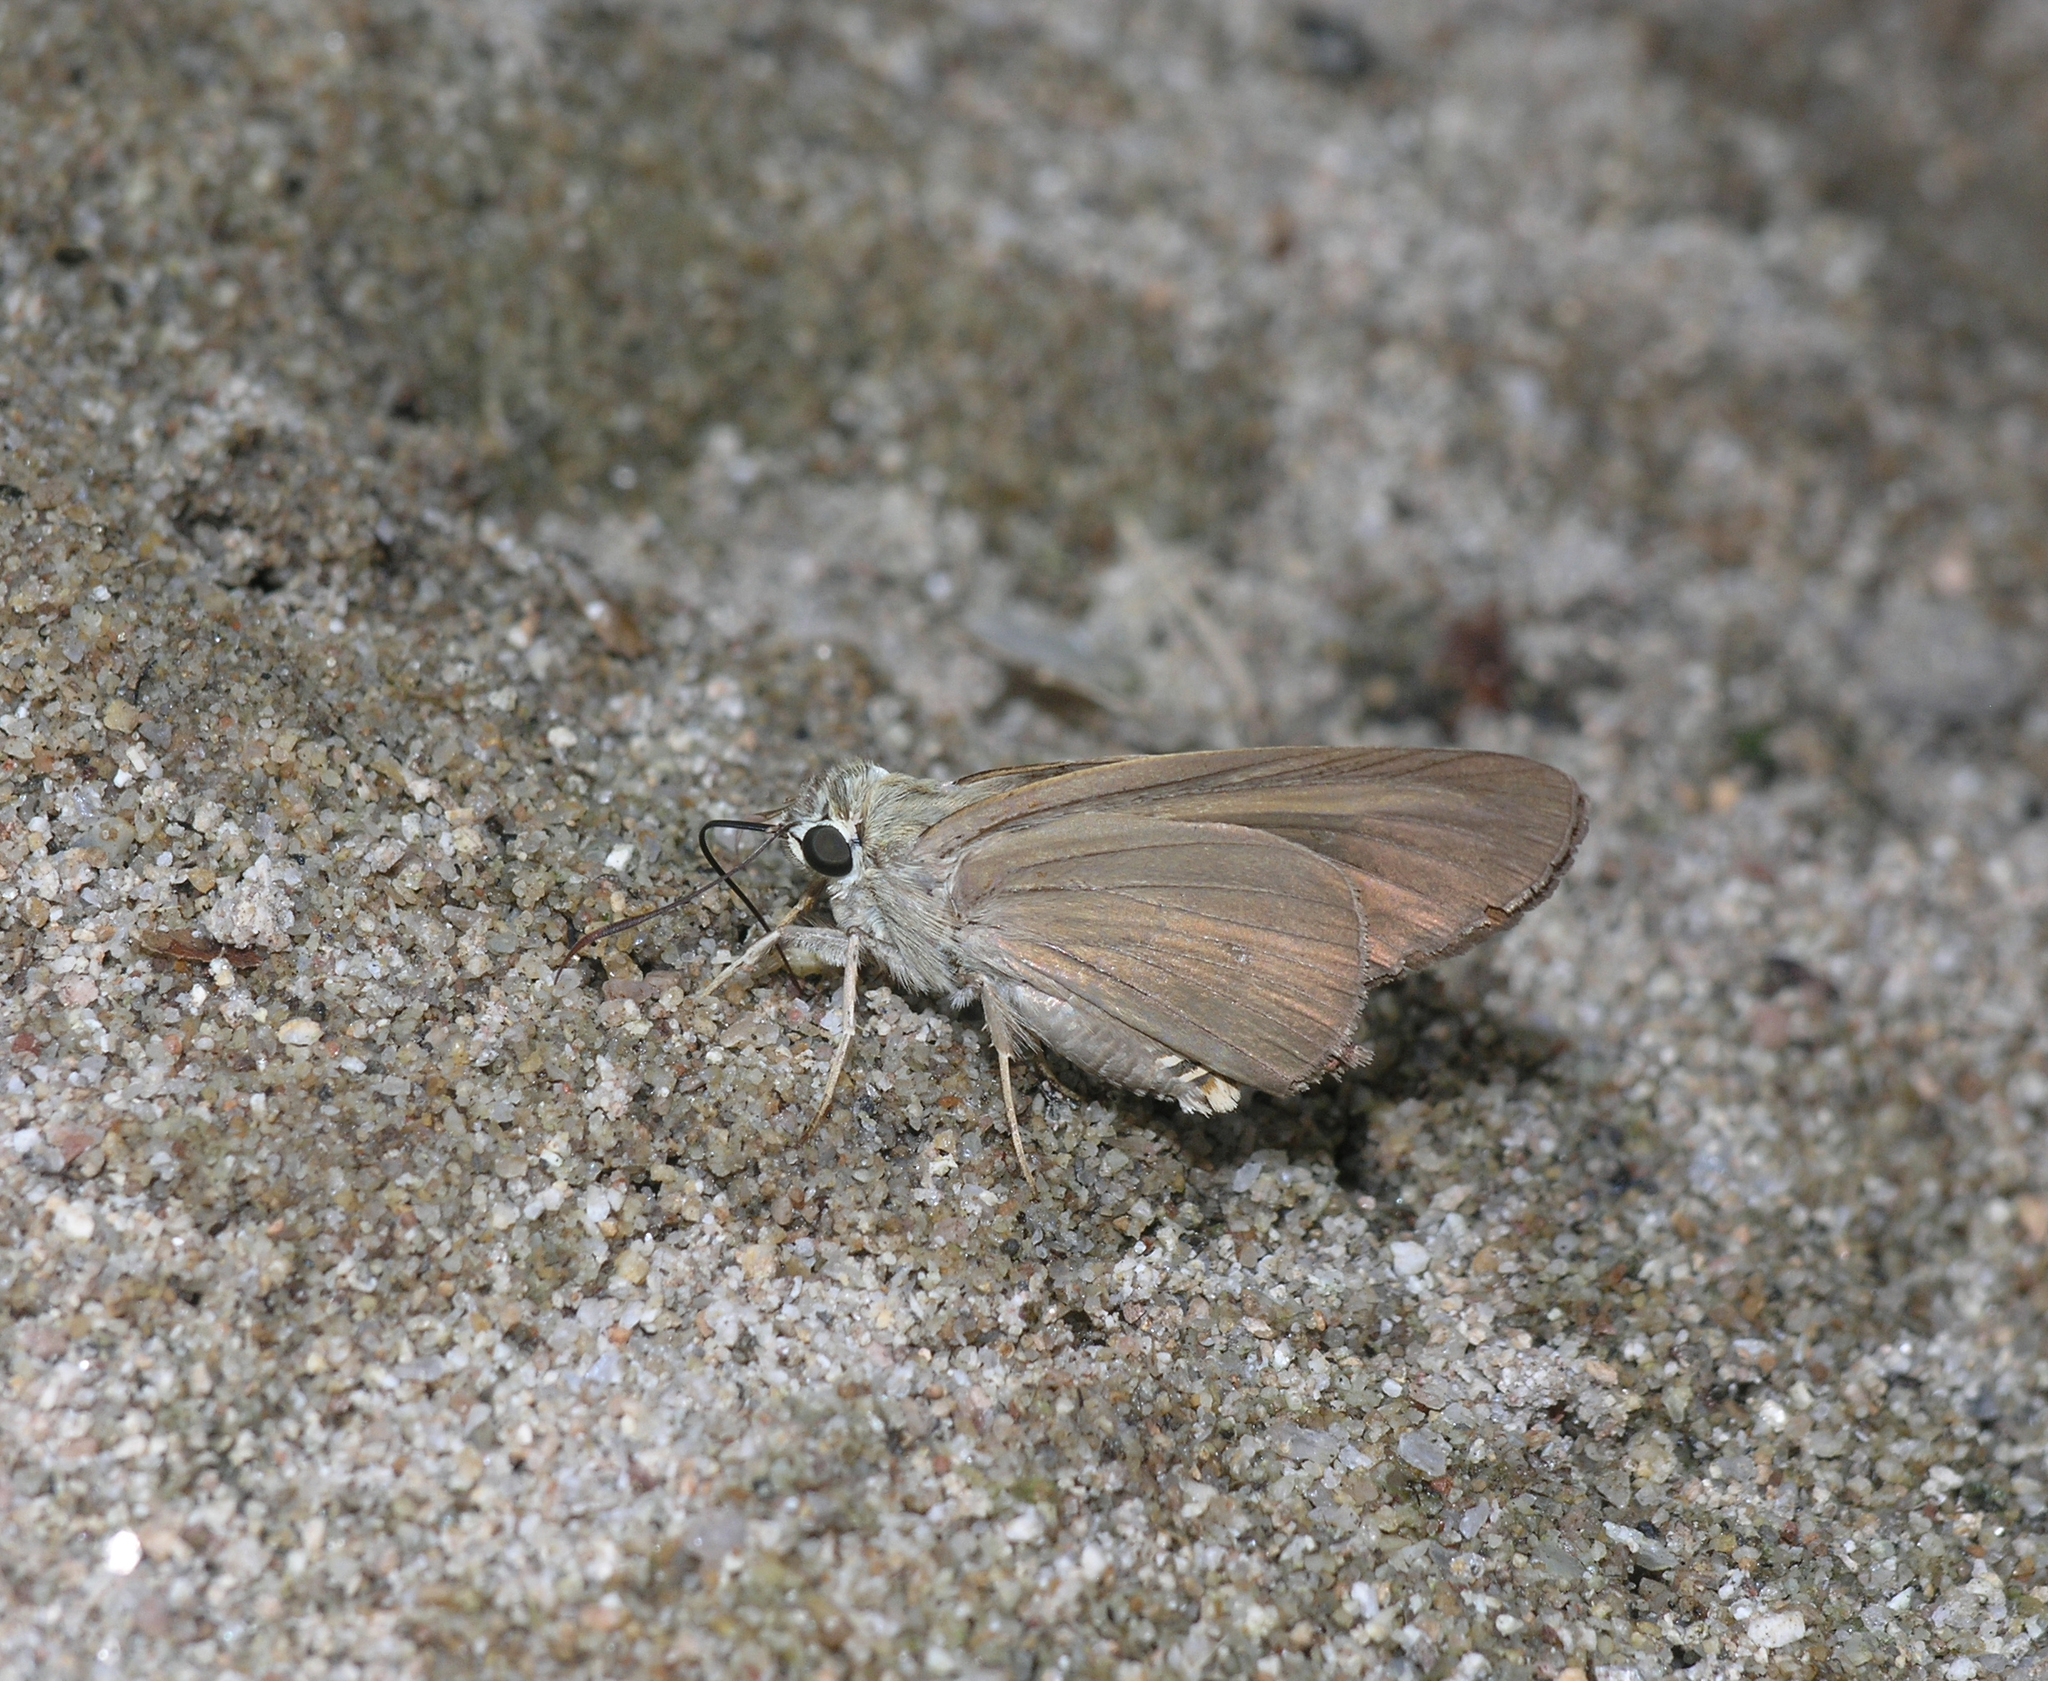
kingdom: Animalia
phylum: Arthropoda
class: Insecta
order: Lepidoptera
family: Hesperiidae
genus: Badamia
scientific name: Badamia exclamationis
